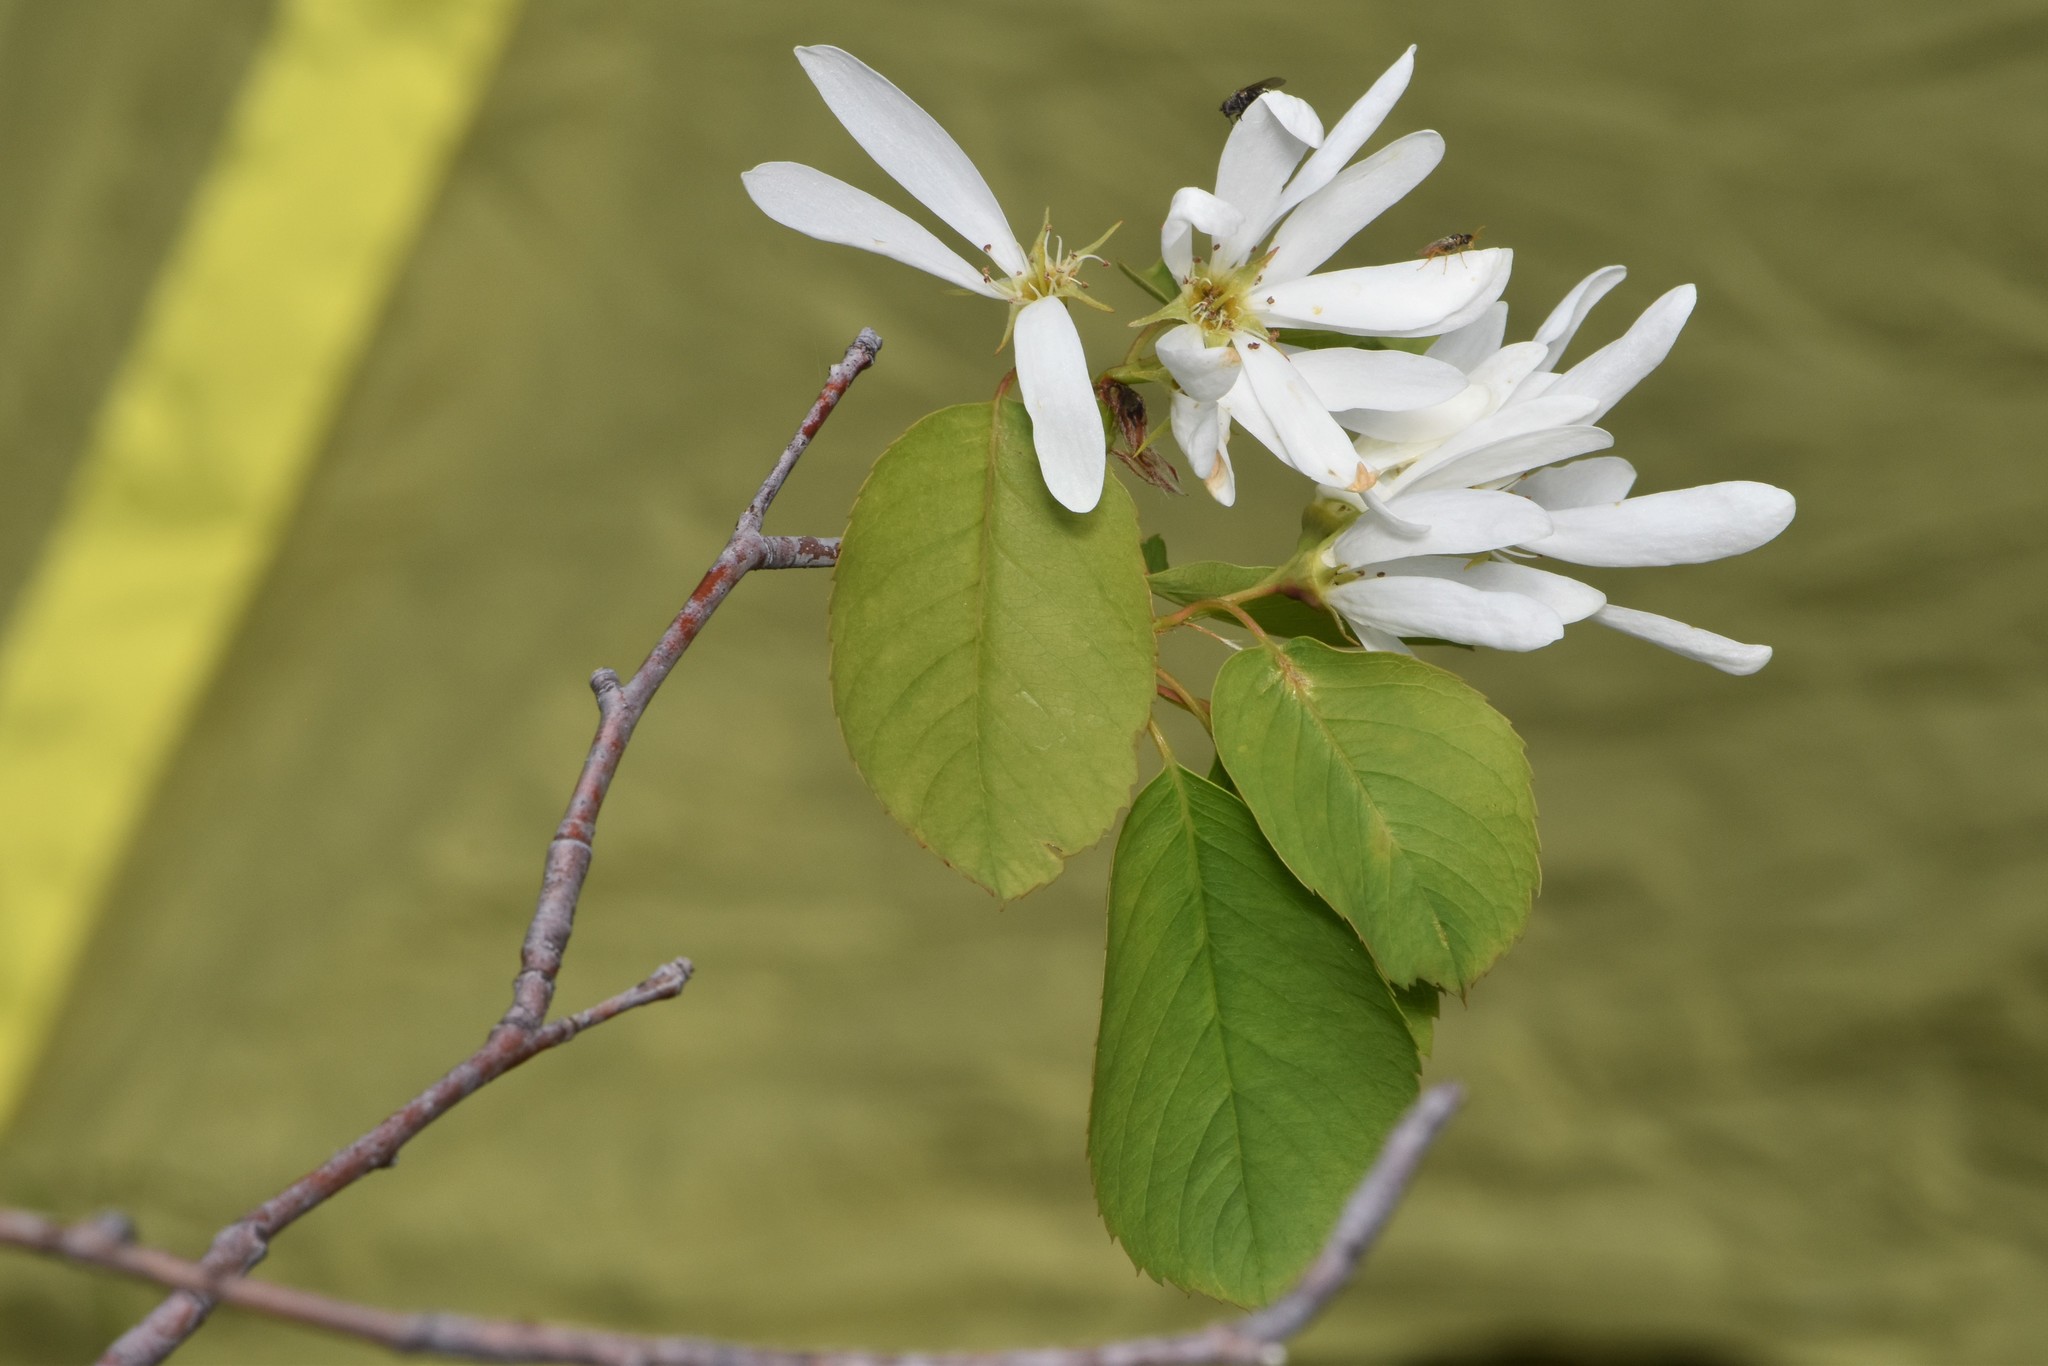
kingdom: Plantae
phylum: Tracheophyta
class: Magnoliopsida
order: Rosales
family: Rosaceae
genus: Amelanchier
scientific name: Amelanchier alnifolia
